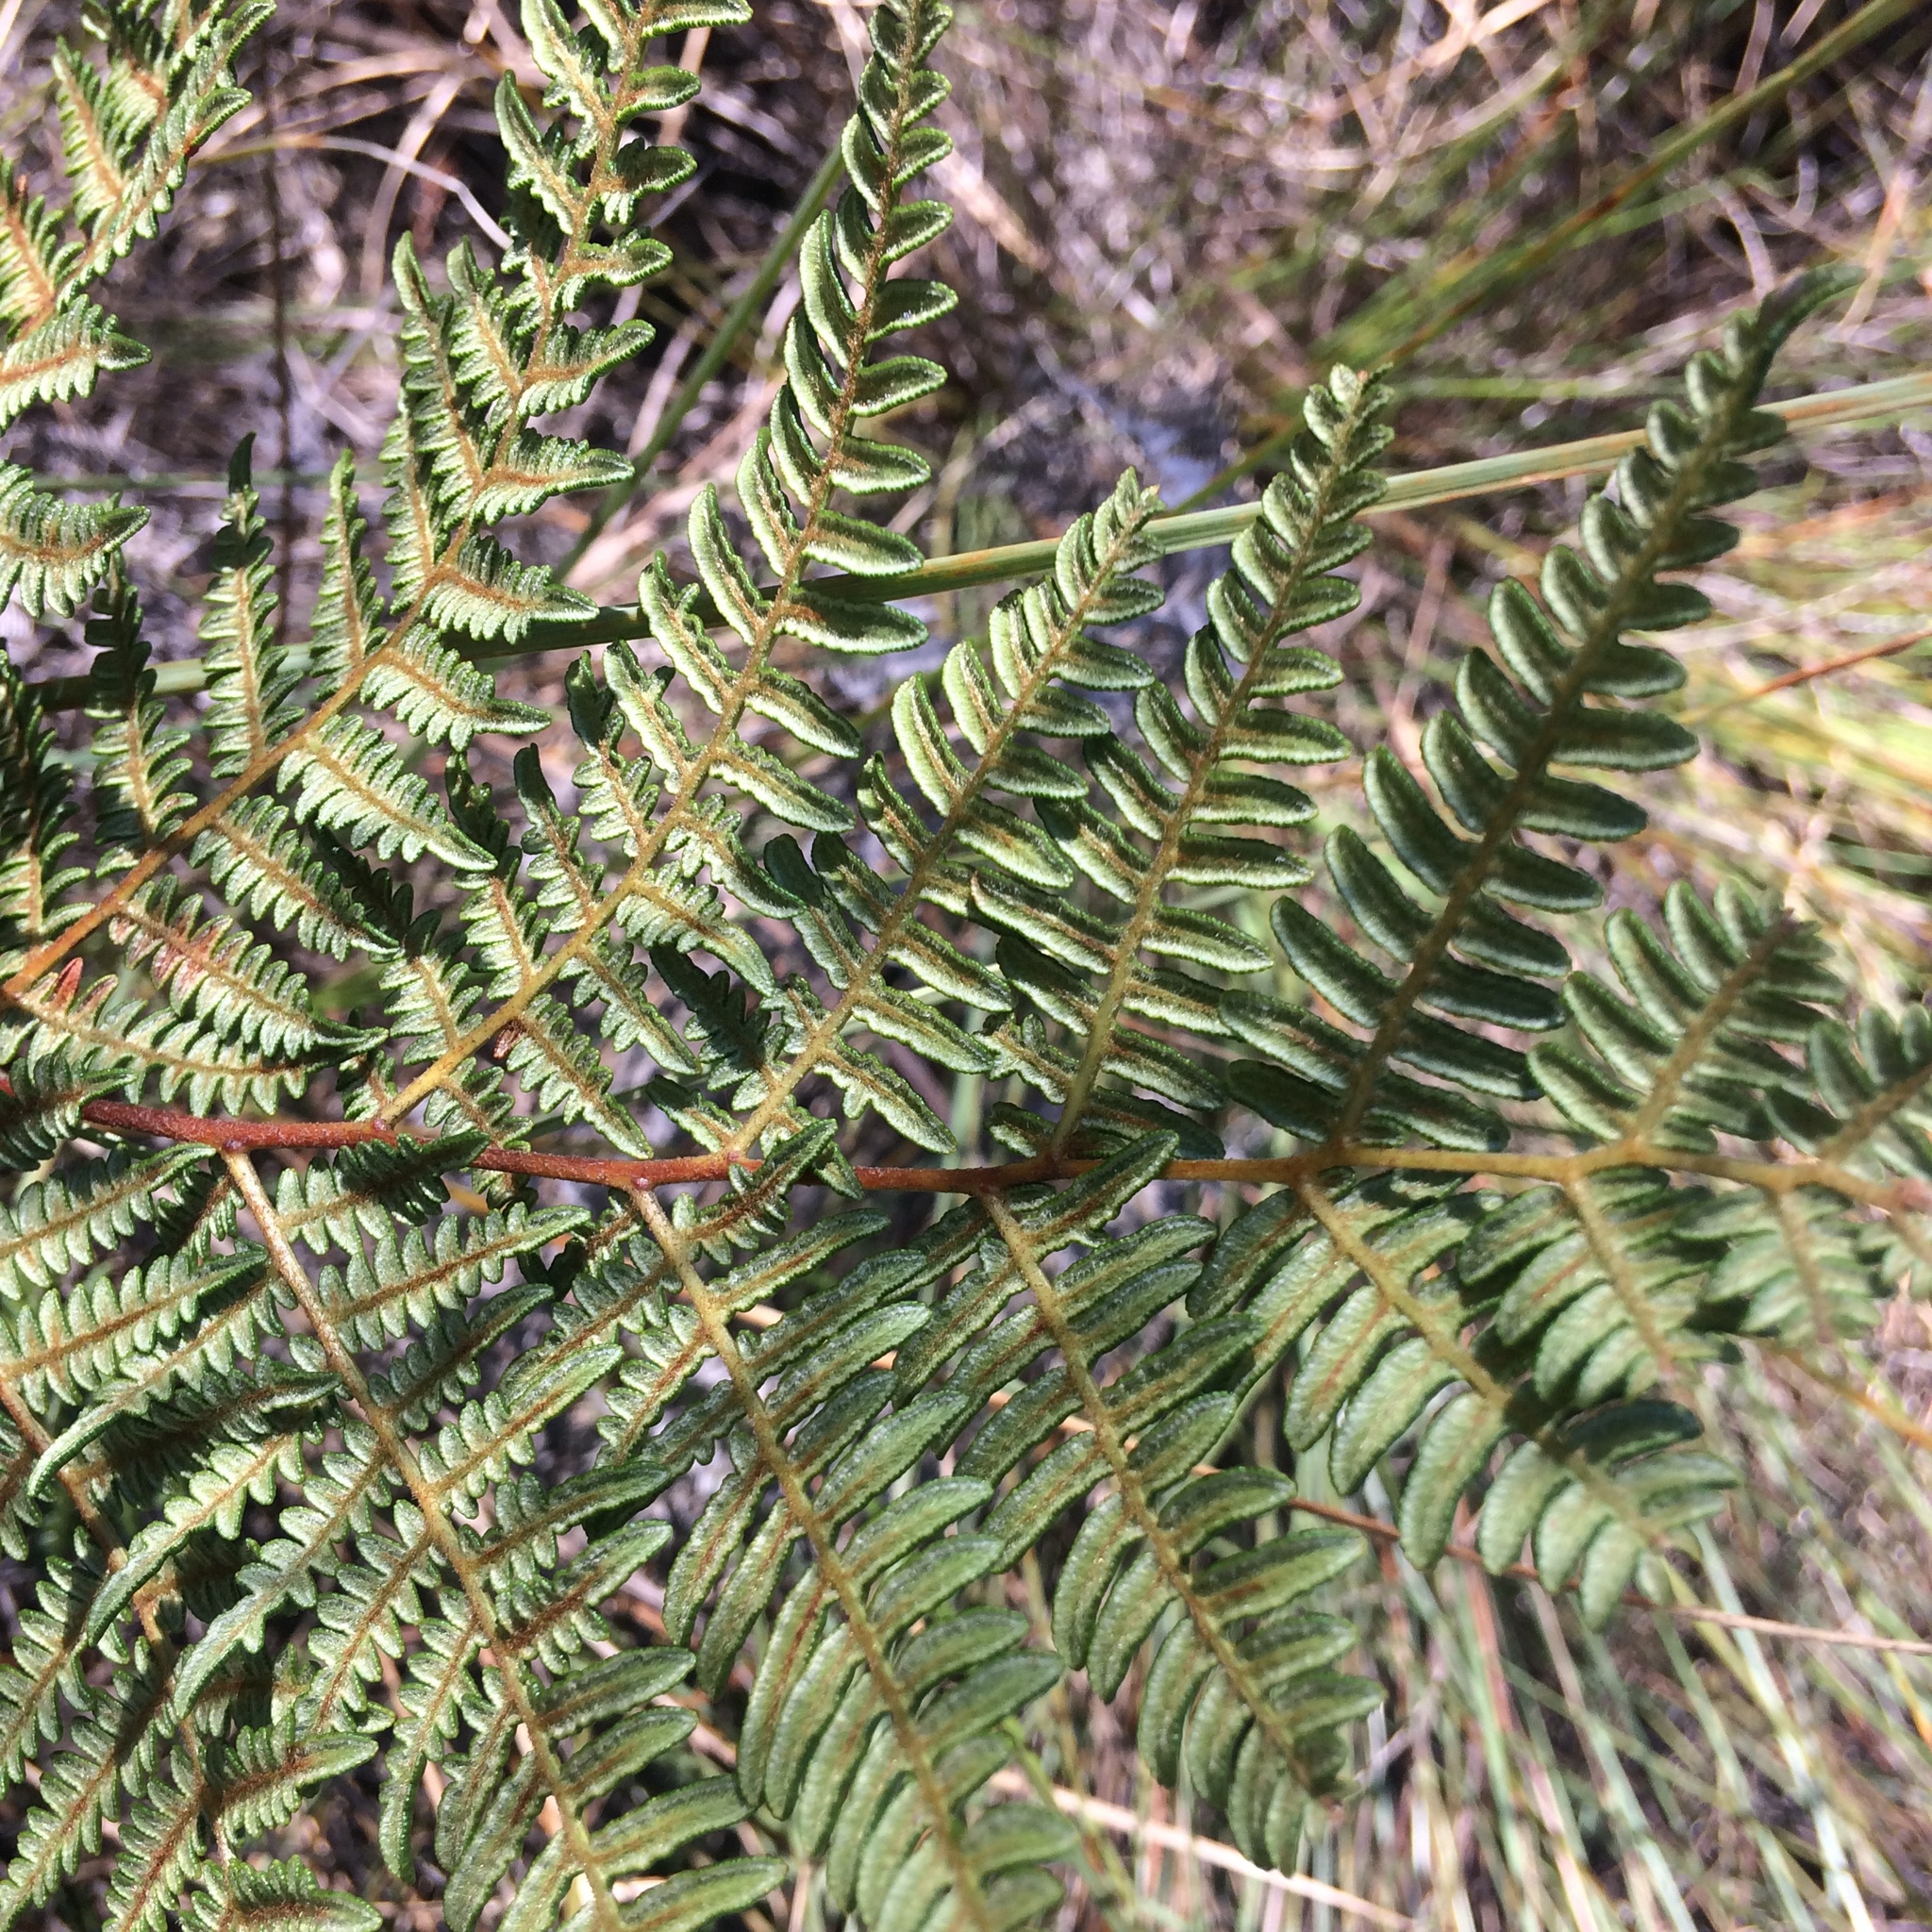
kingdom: Plantae
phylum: Tracheophyta
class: Polypodiopsida
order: Polypodiales
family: Dennstaedtiaceae
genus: Pteridium
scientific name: Pteridium aquilinum
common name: Bracken
